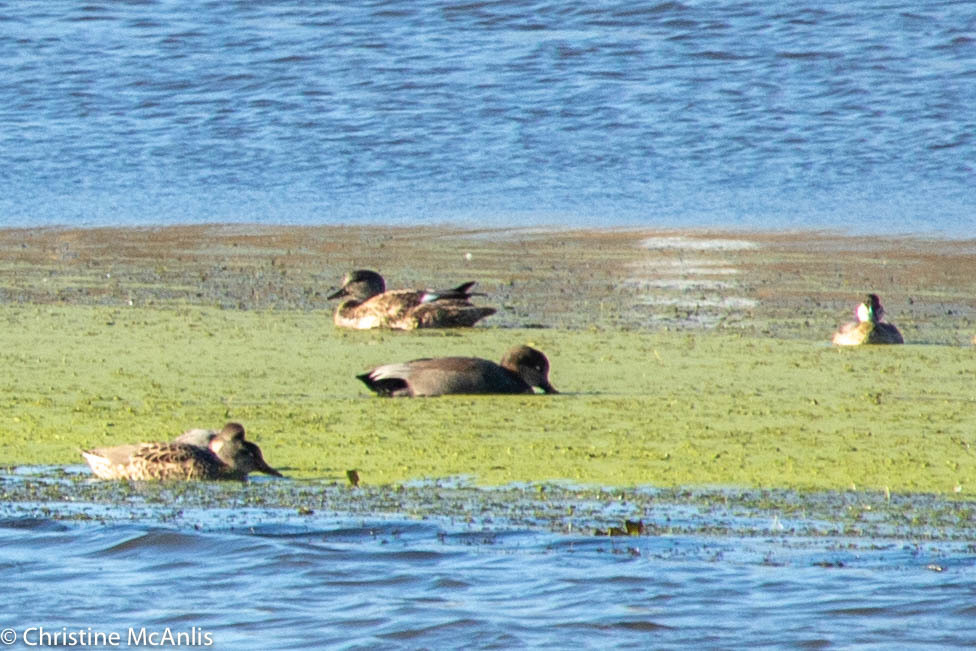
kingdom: Animalia
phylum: Chordata
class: Aves
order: Anseriformes
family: Anatidae
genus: Mareca
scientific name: Mareca strepera
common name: Gadwall
